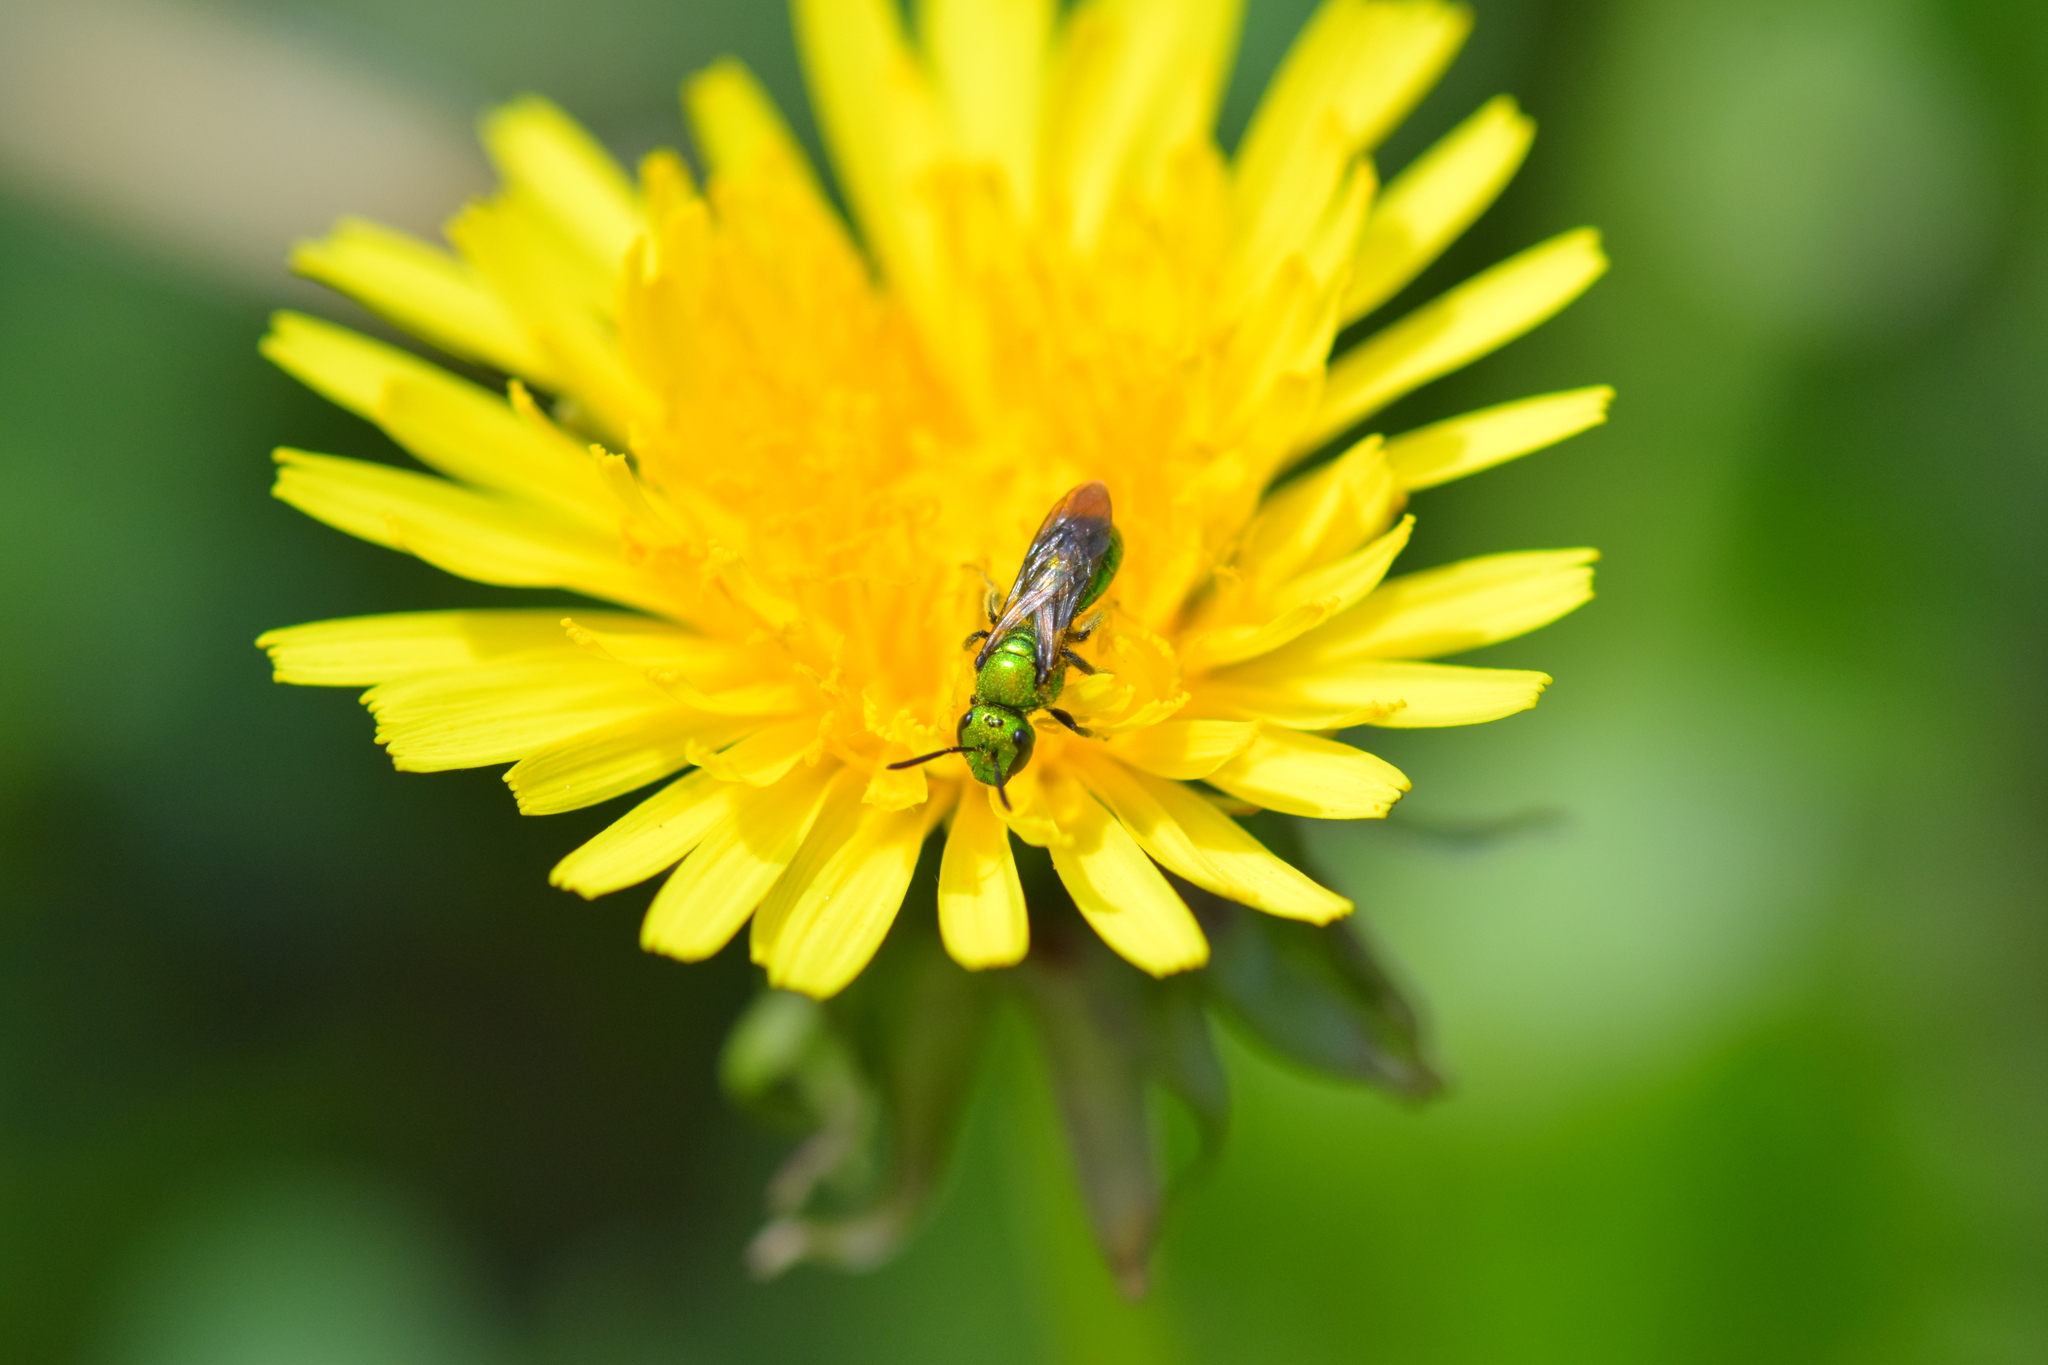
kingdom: Animalia
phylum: Arthropoda
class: Insecta
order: Hymenoptera
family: Halictidae
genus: Augochlora
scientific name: Augochlora pura
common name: Pure green sweat bee
